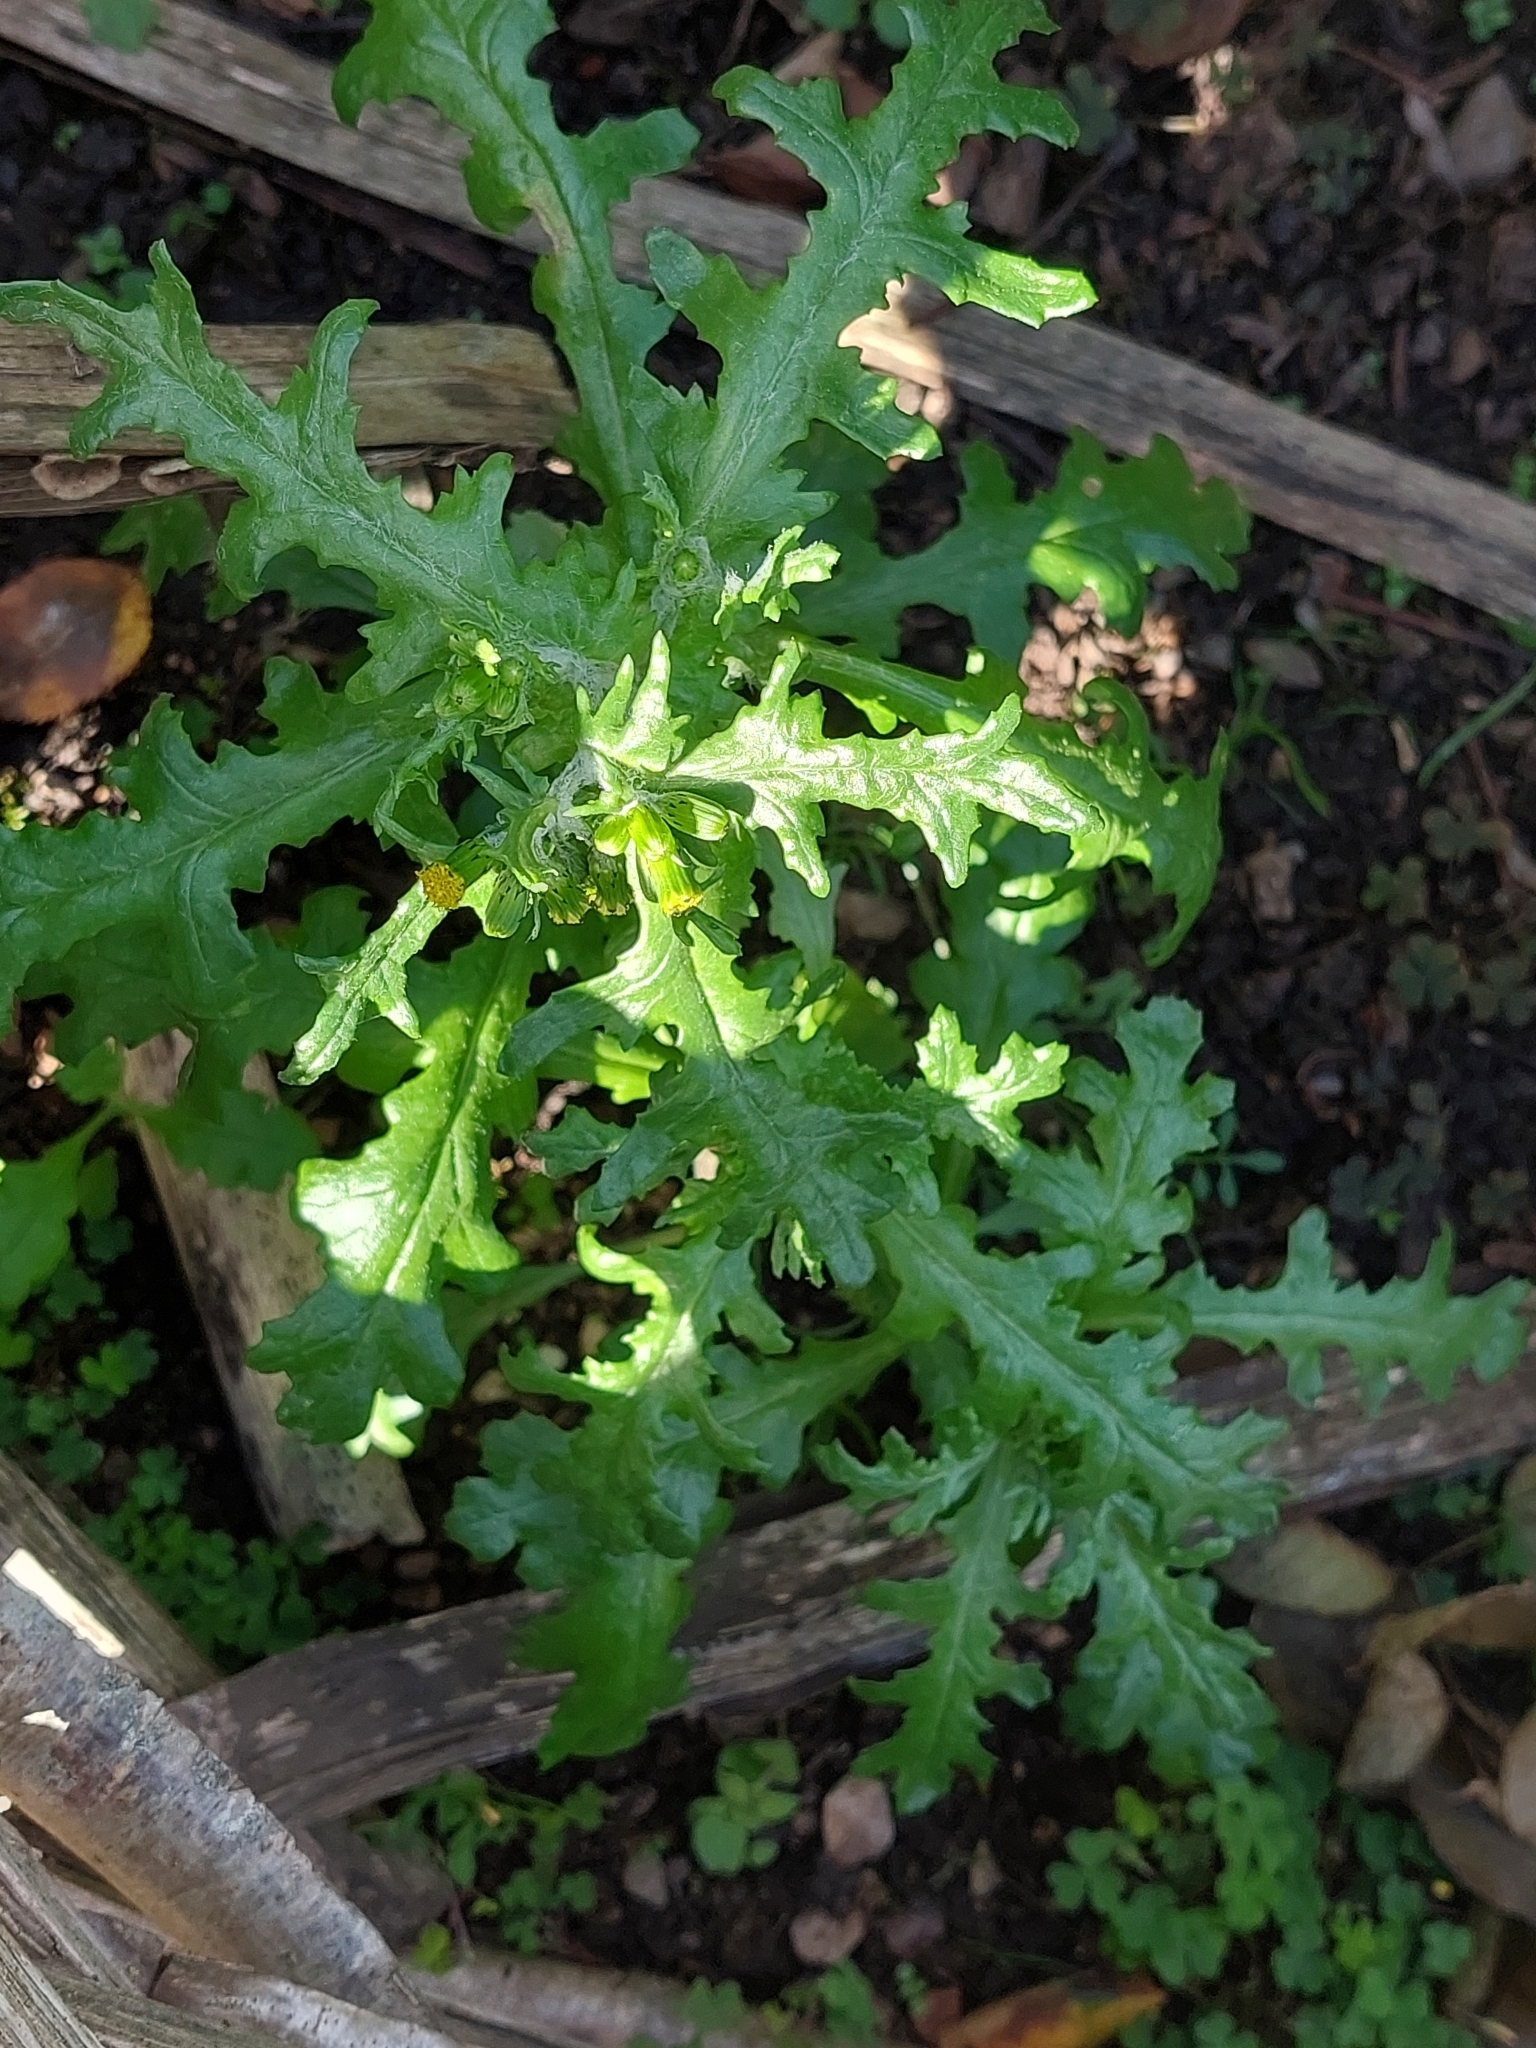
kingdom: Plantae
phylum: Tracheophyta
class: Magnoliopsida
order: Asterales
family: Asteraceae
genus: Senecio
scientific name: Senecio vulgaris
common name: Old-man-in-the-spring
